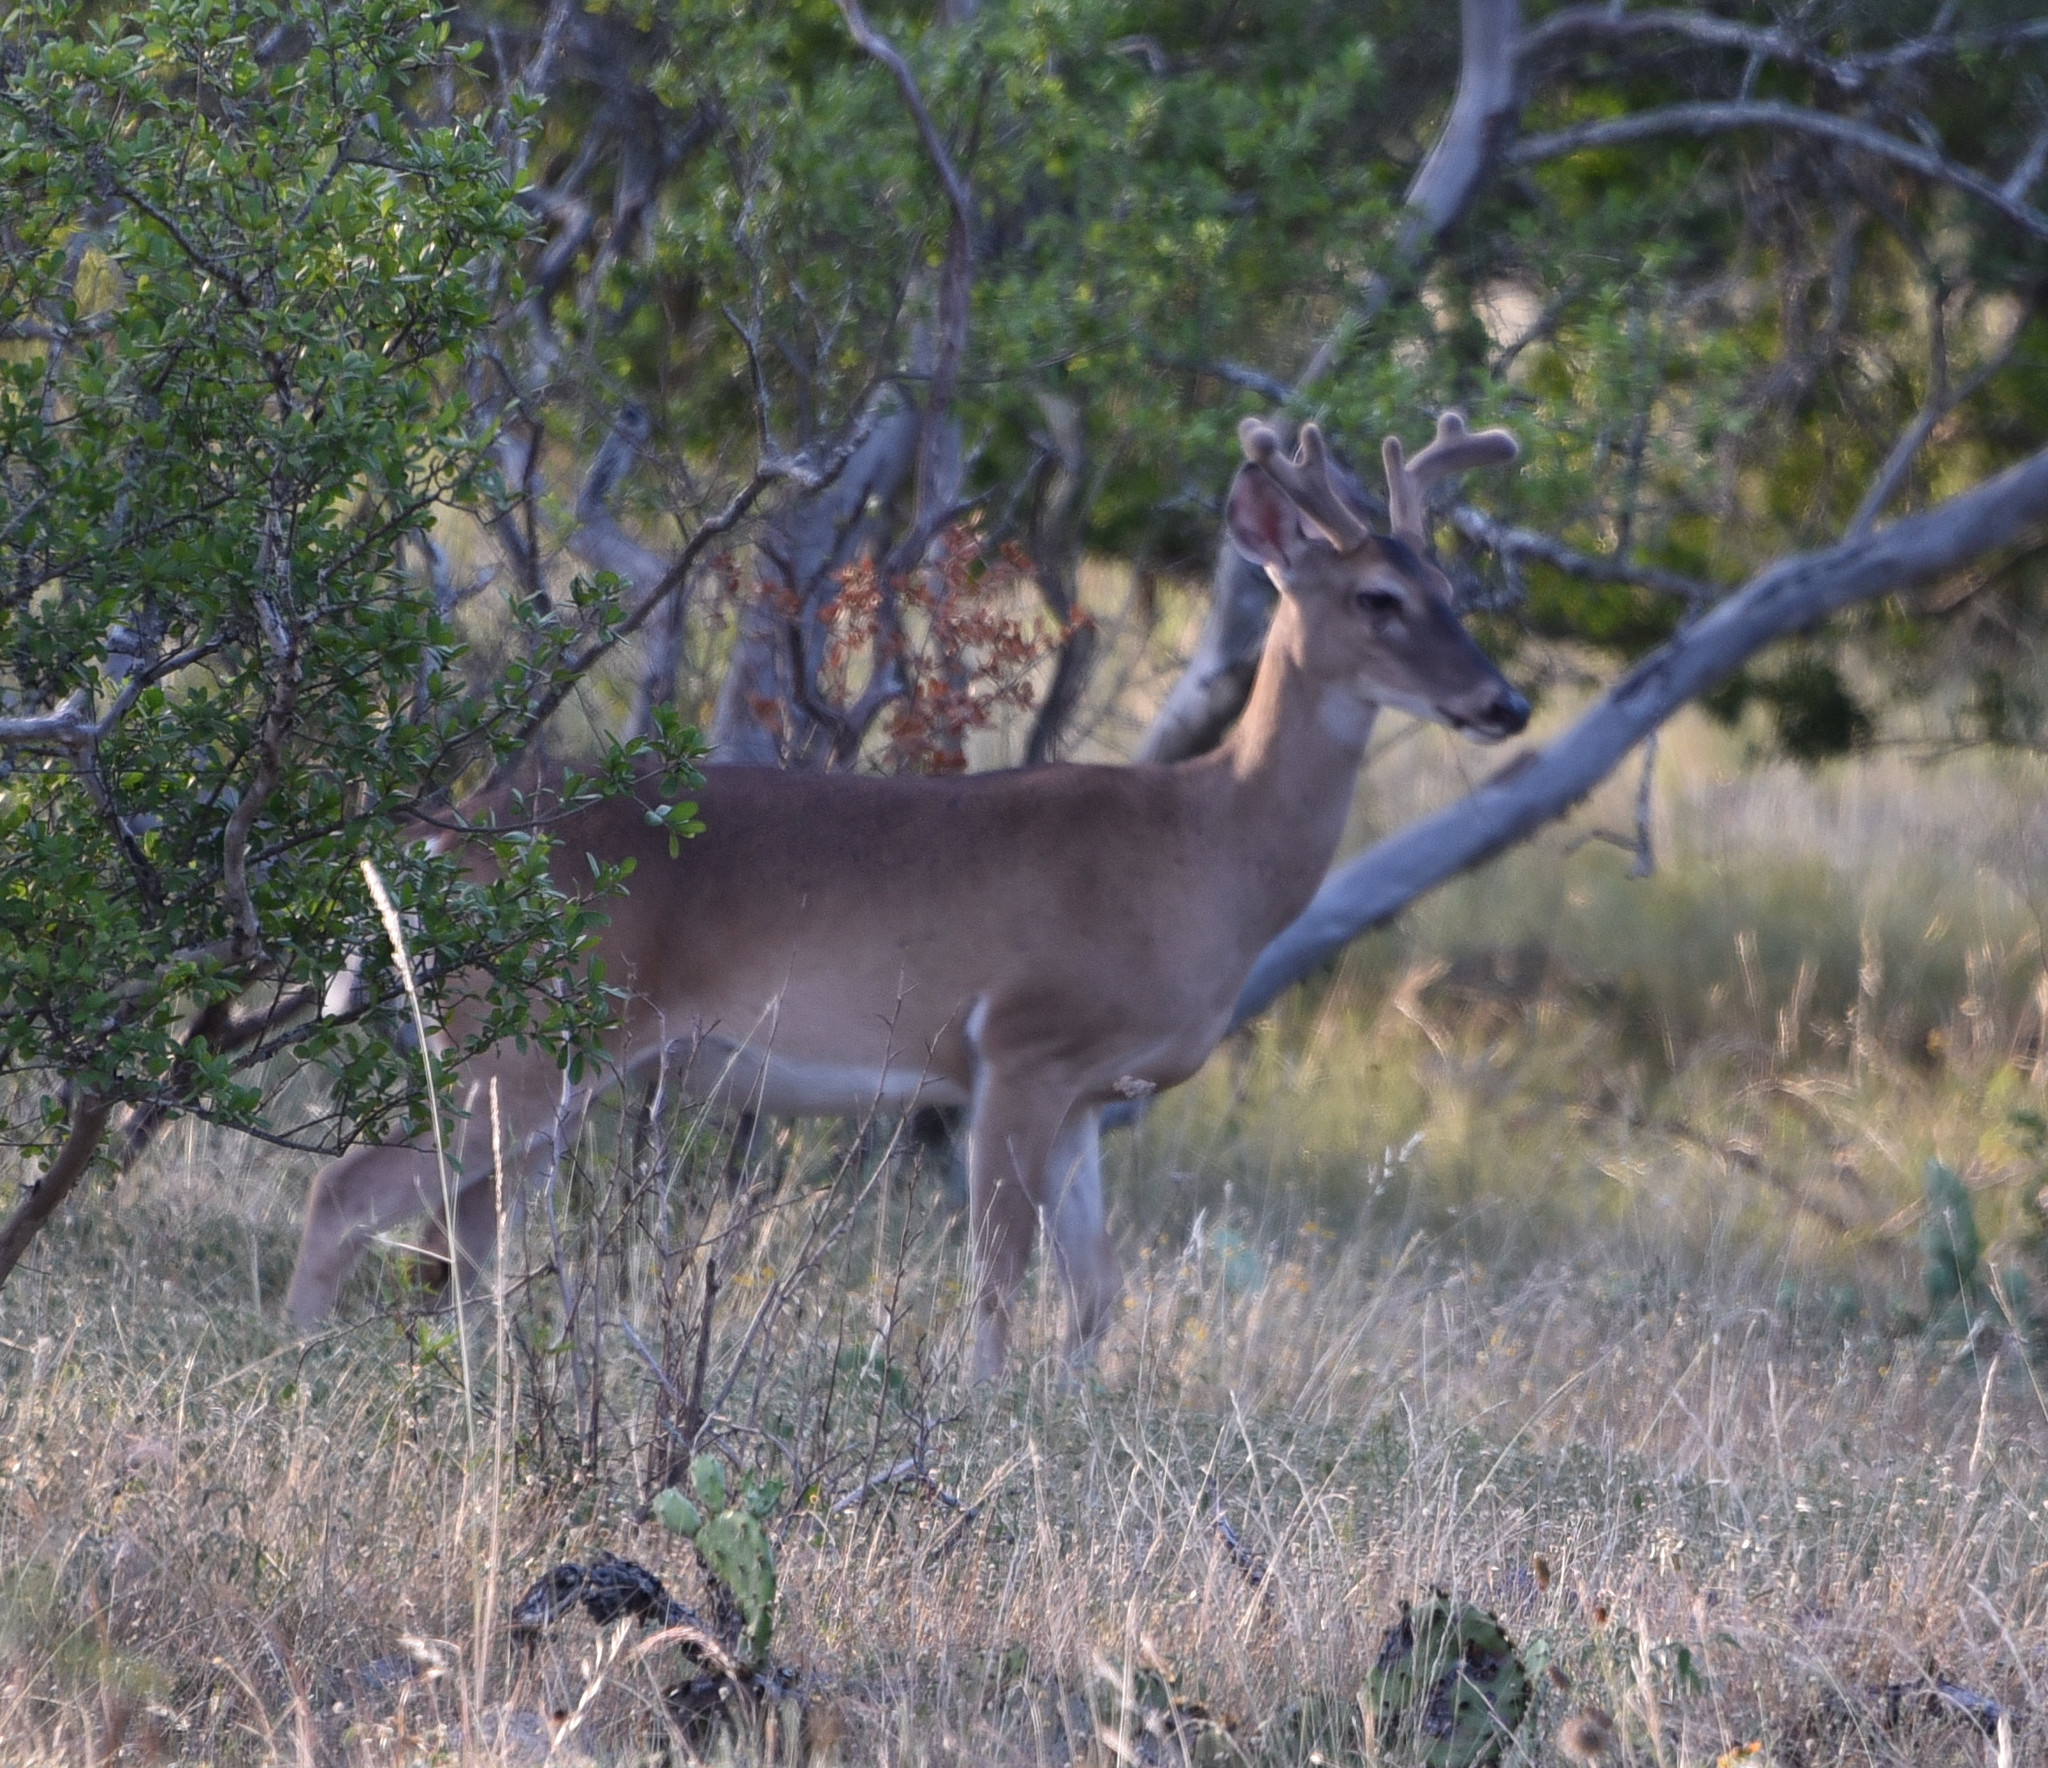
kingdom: Animalia
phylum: Chordata
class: Mammalia
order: Artiodactyla
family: Cervidae
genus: Odocoileus
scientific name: Odocoileus virginianus
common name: White-tailed deer
